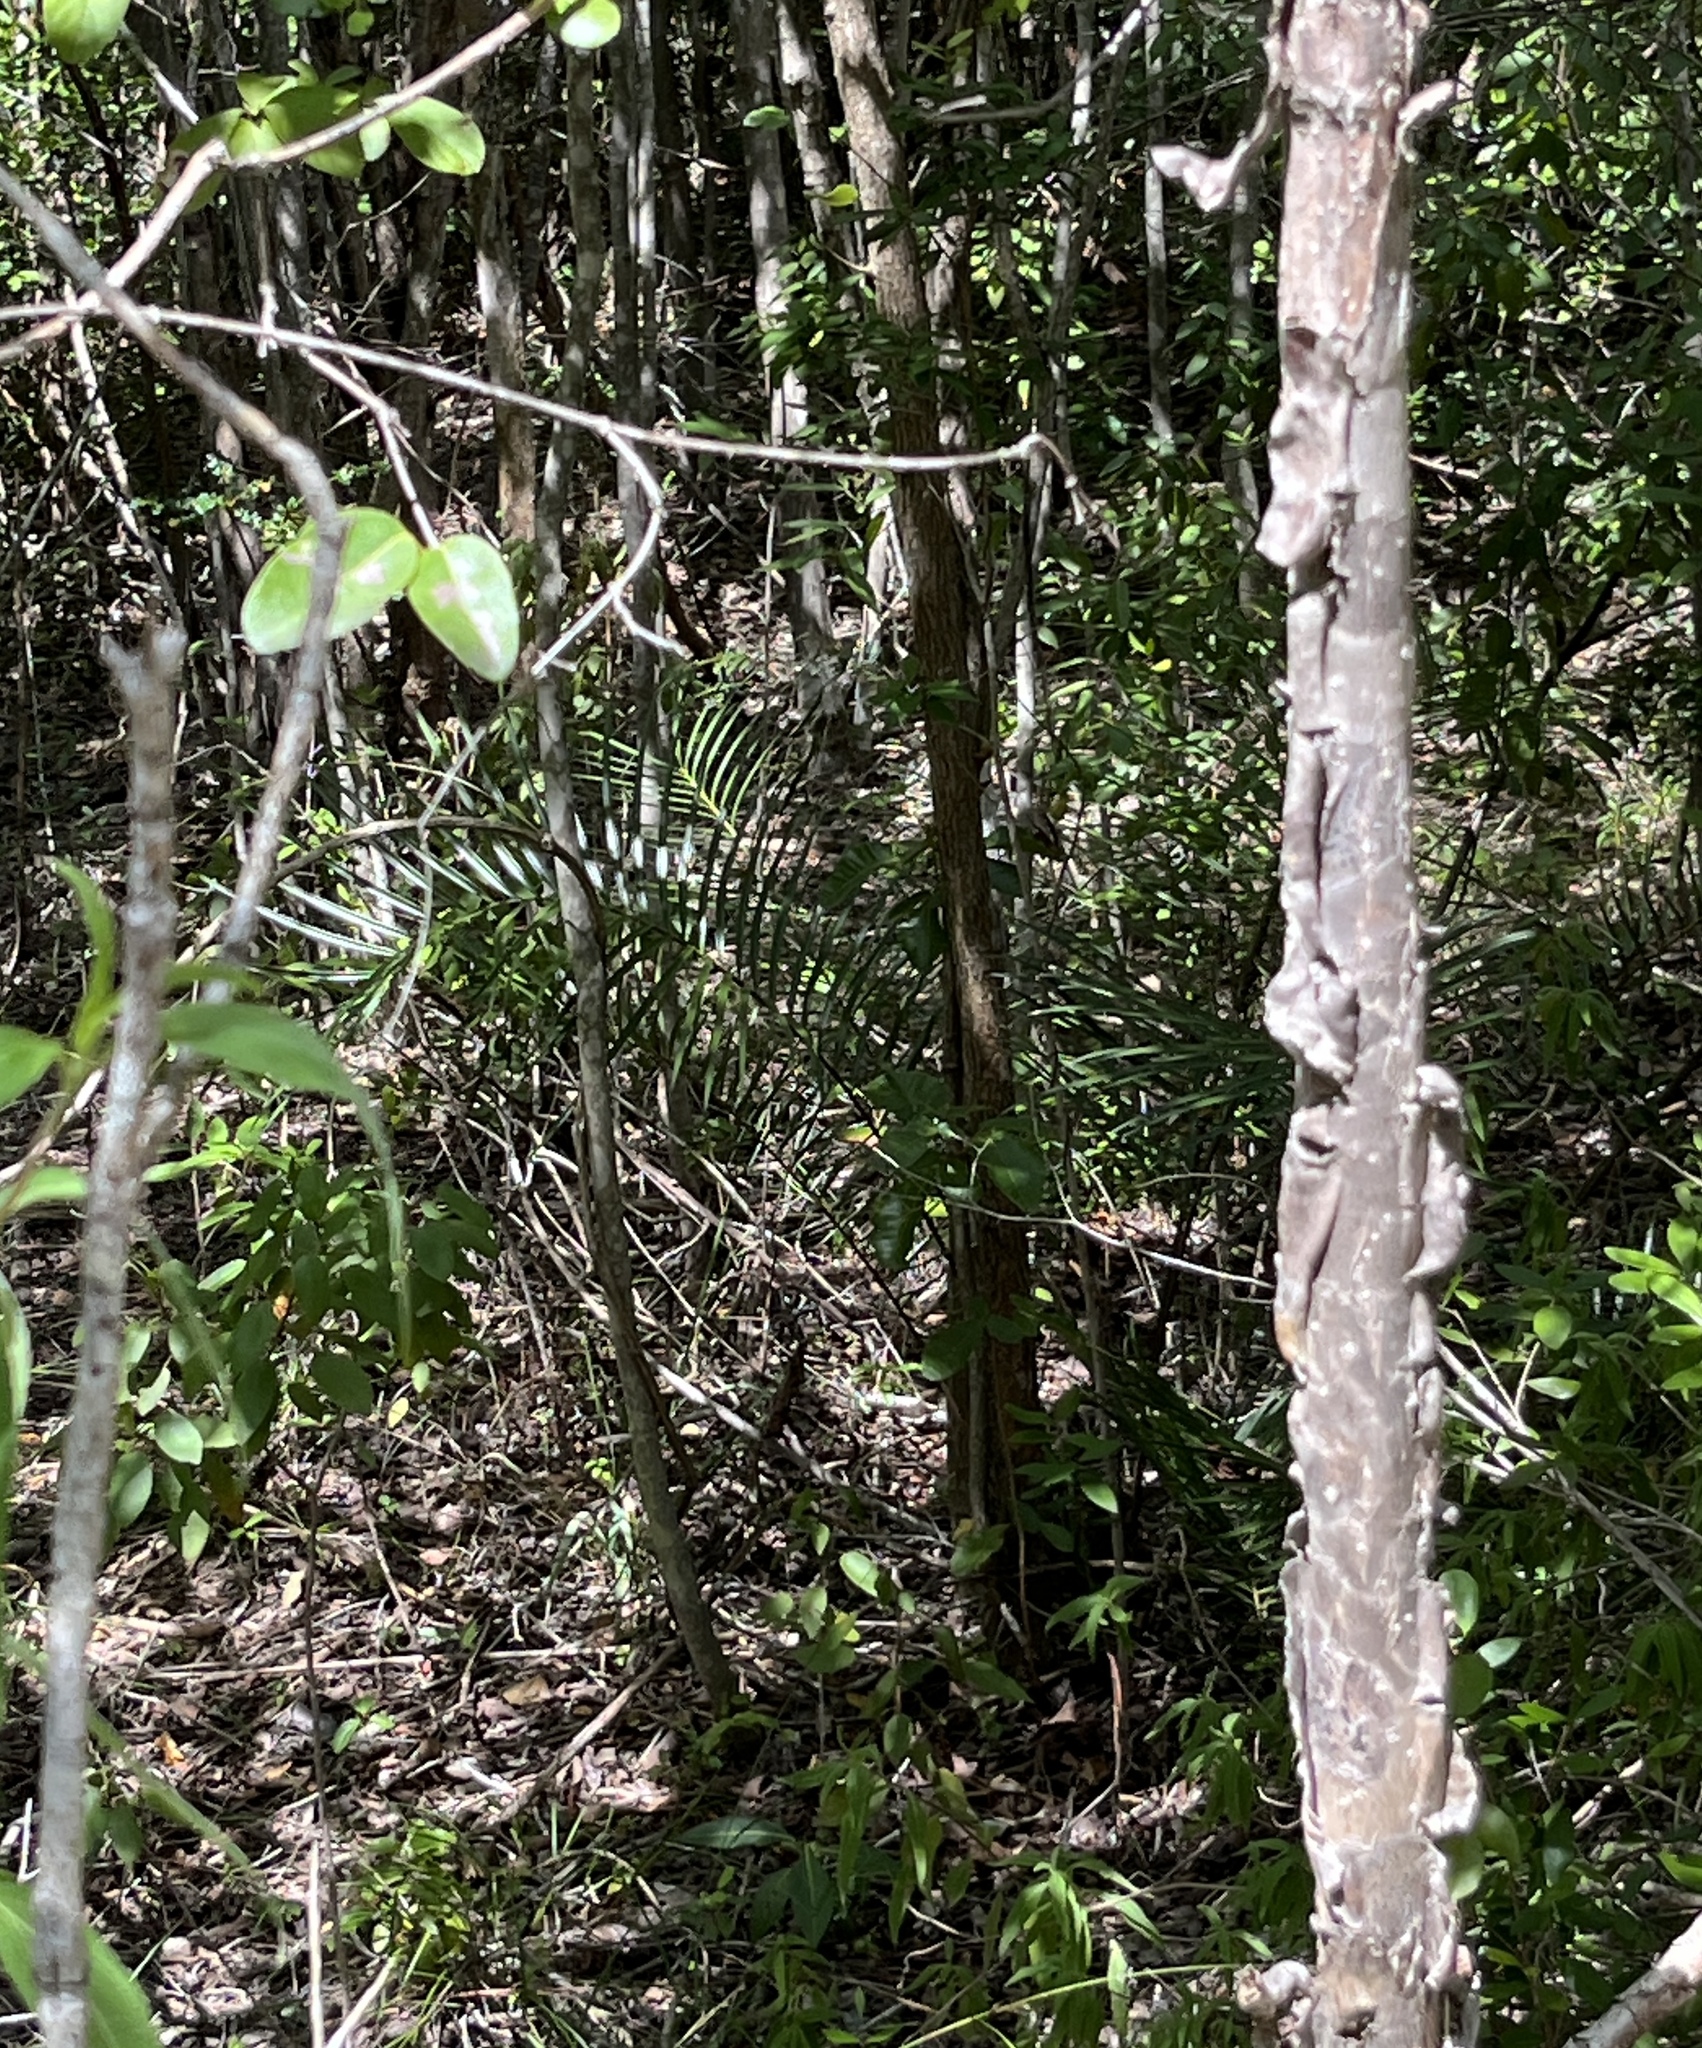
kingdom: Plantae
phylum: Tracheophyta
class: Cycadopsida
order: Cycadales
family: Zamiaceae
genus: Zamia
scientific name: Zamia portoricensis
